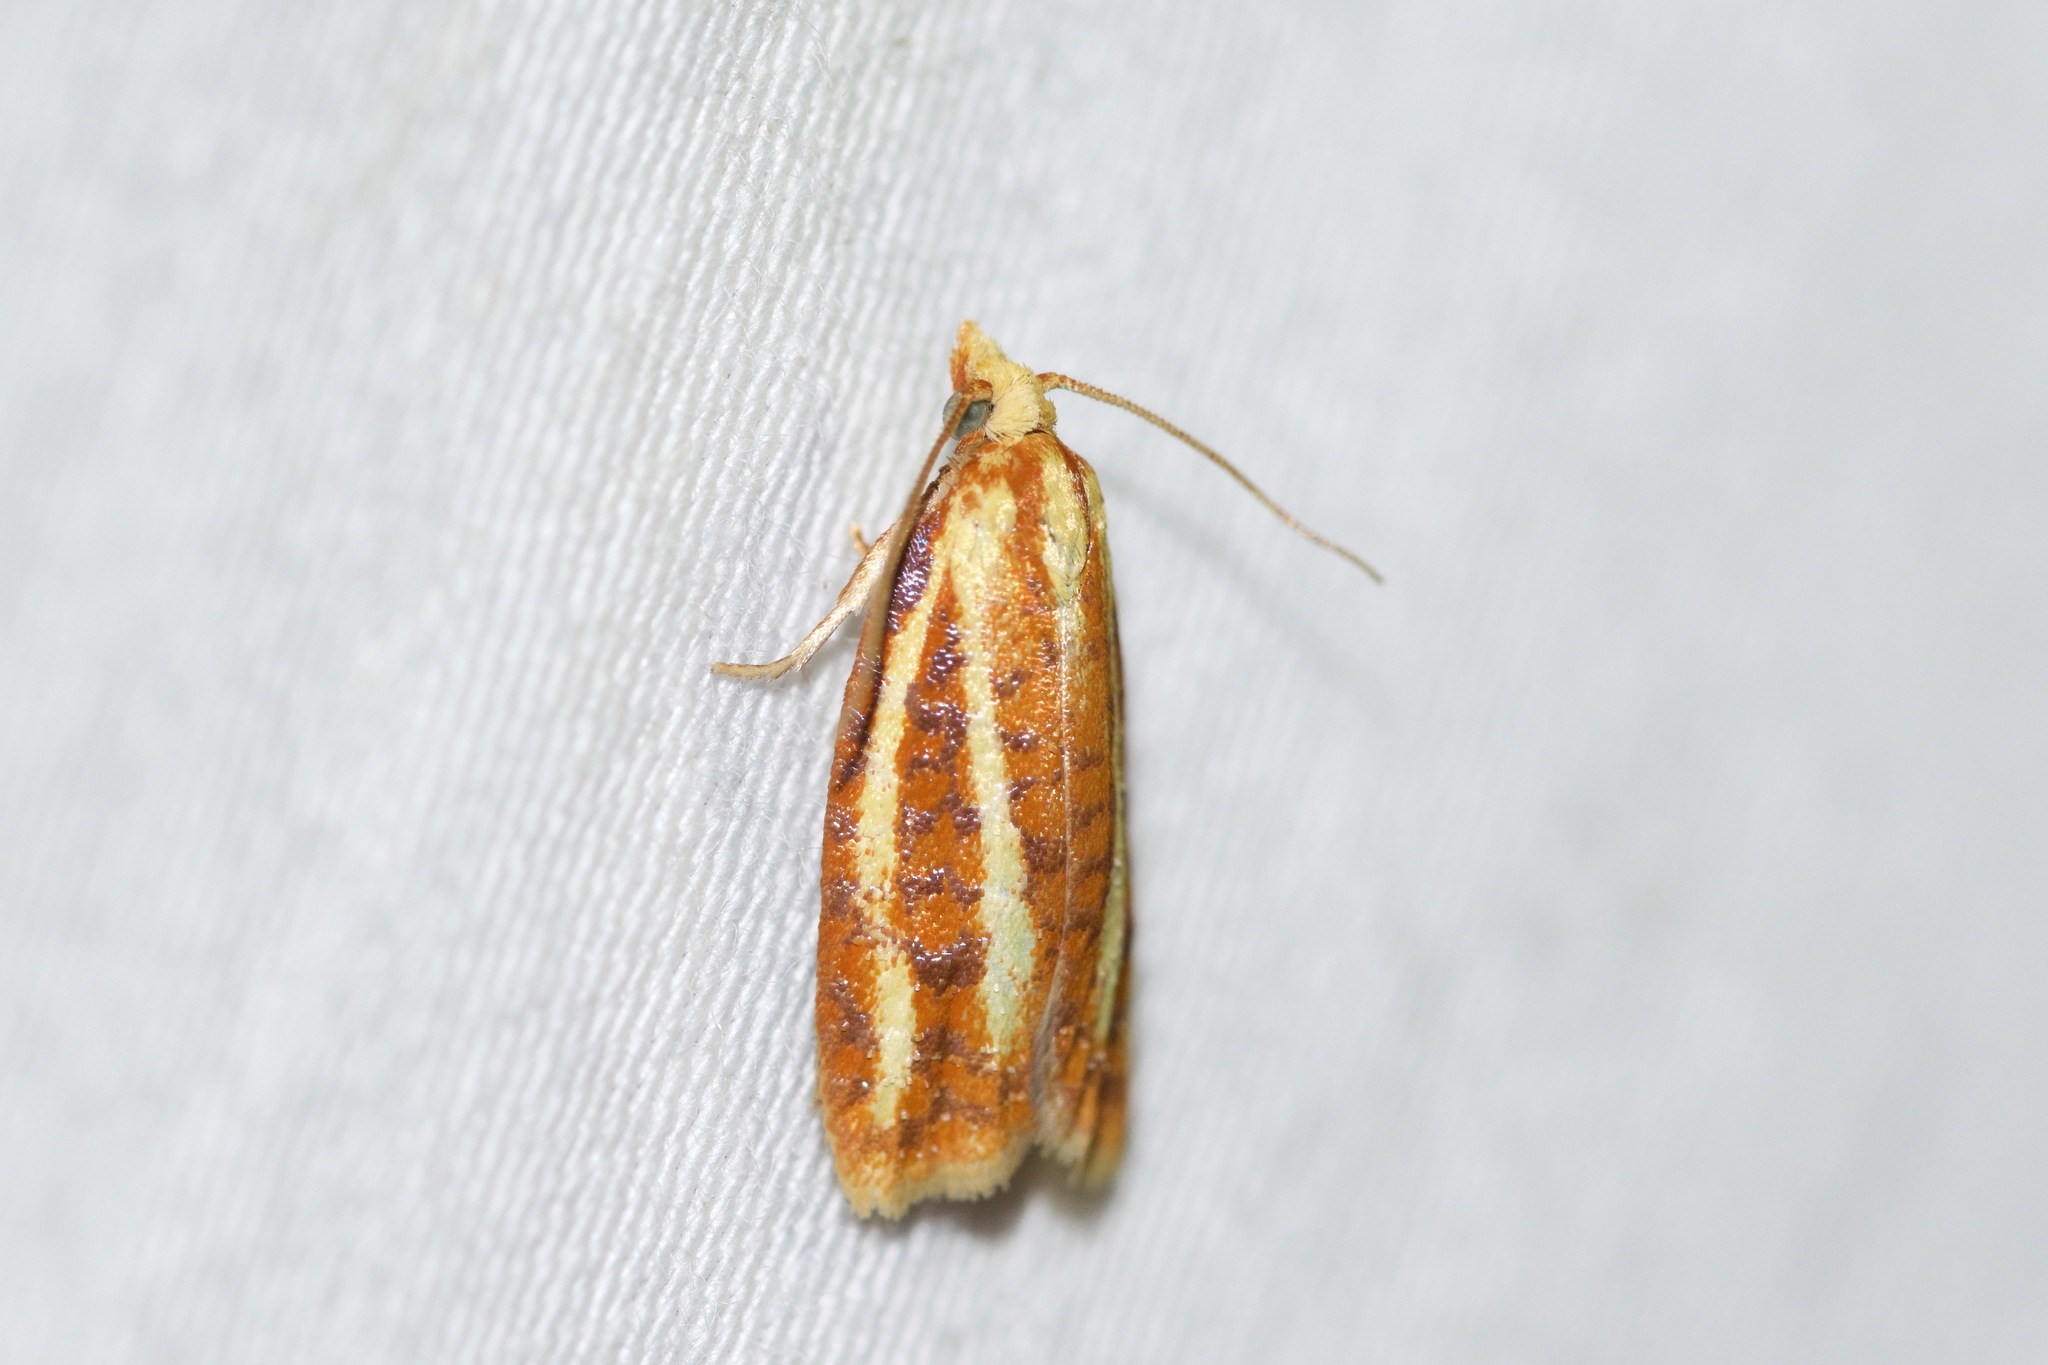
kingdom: Animalia
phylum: Arthropoda
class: Insecta
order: Lepidoptera
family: Tortricidae
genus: Sparganothis
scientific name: Sparganothis tristriata
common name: Three-streaked sparganothis moth
